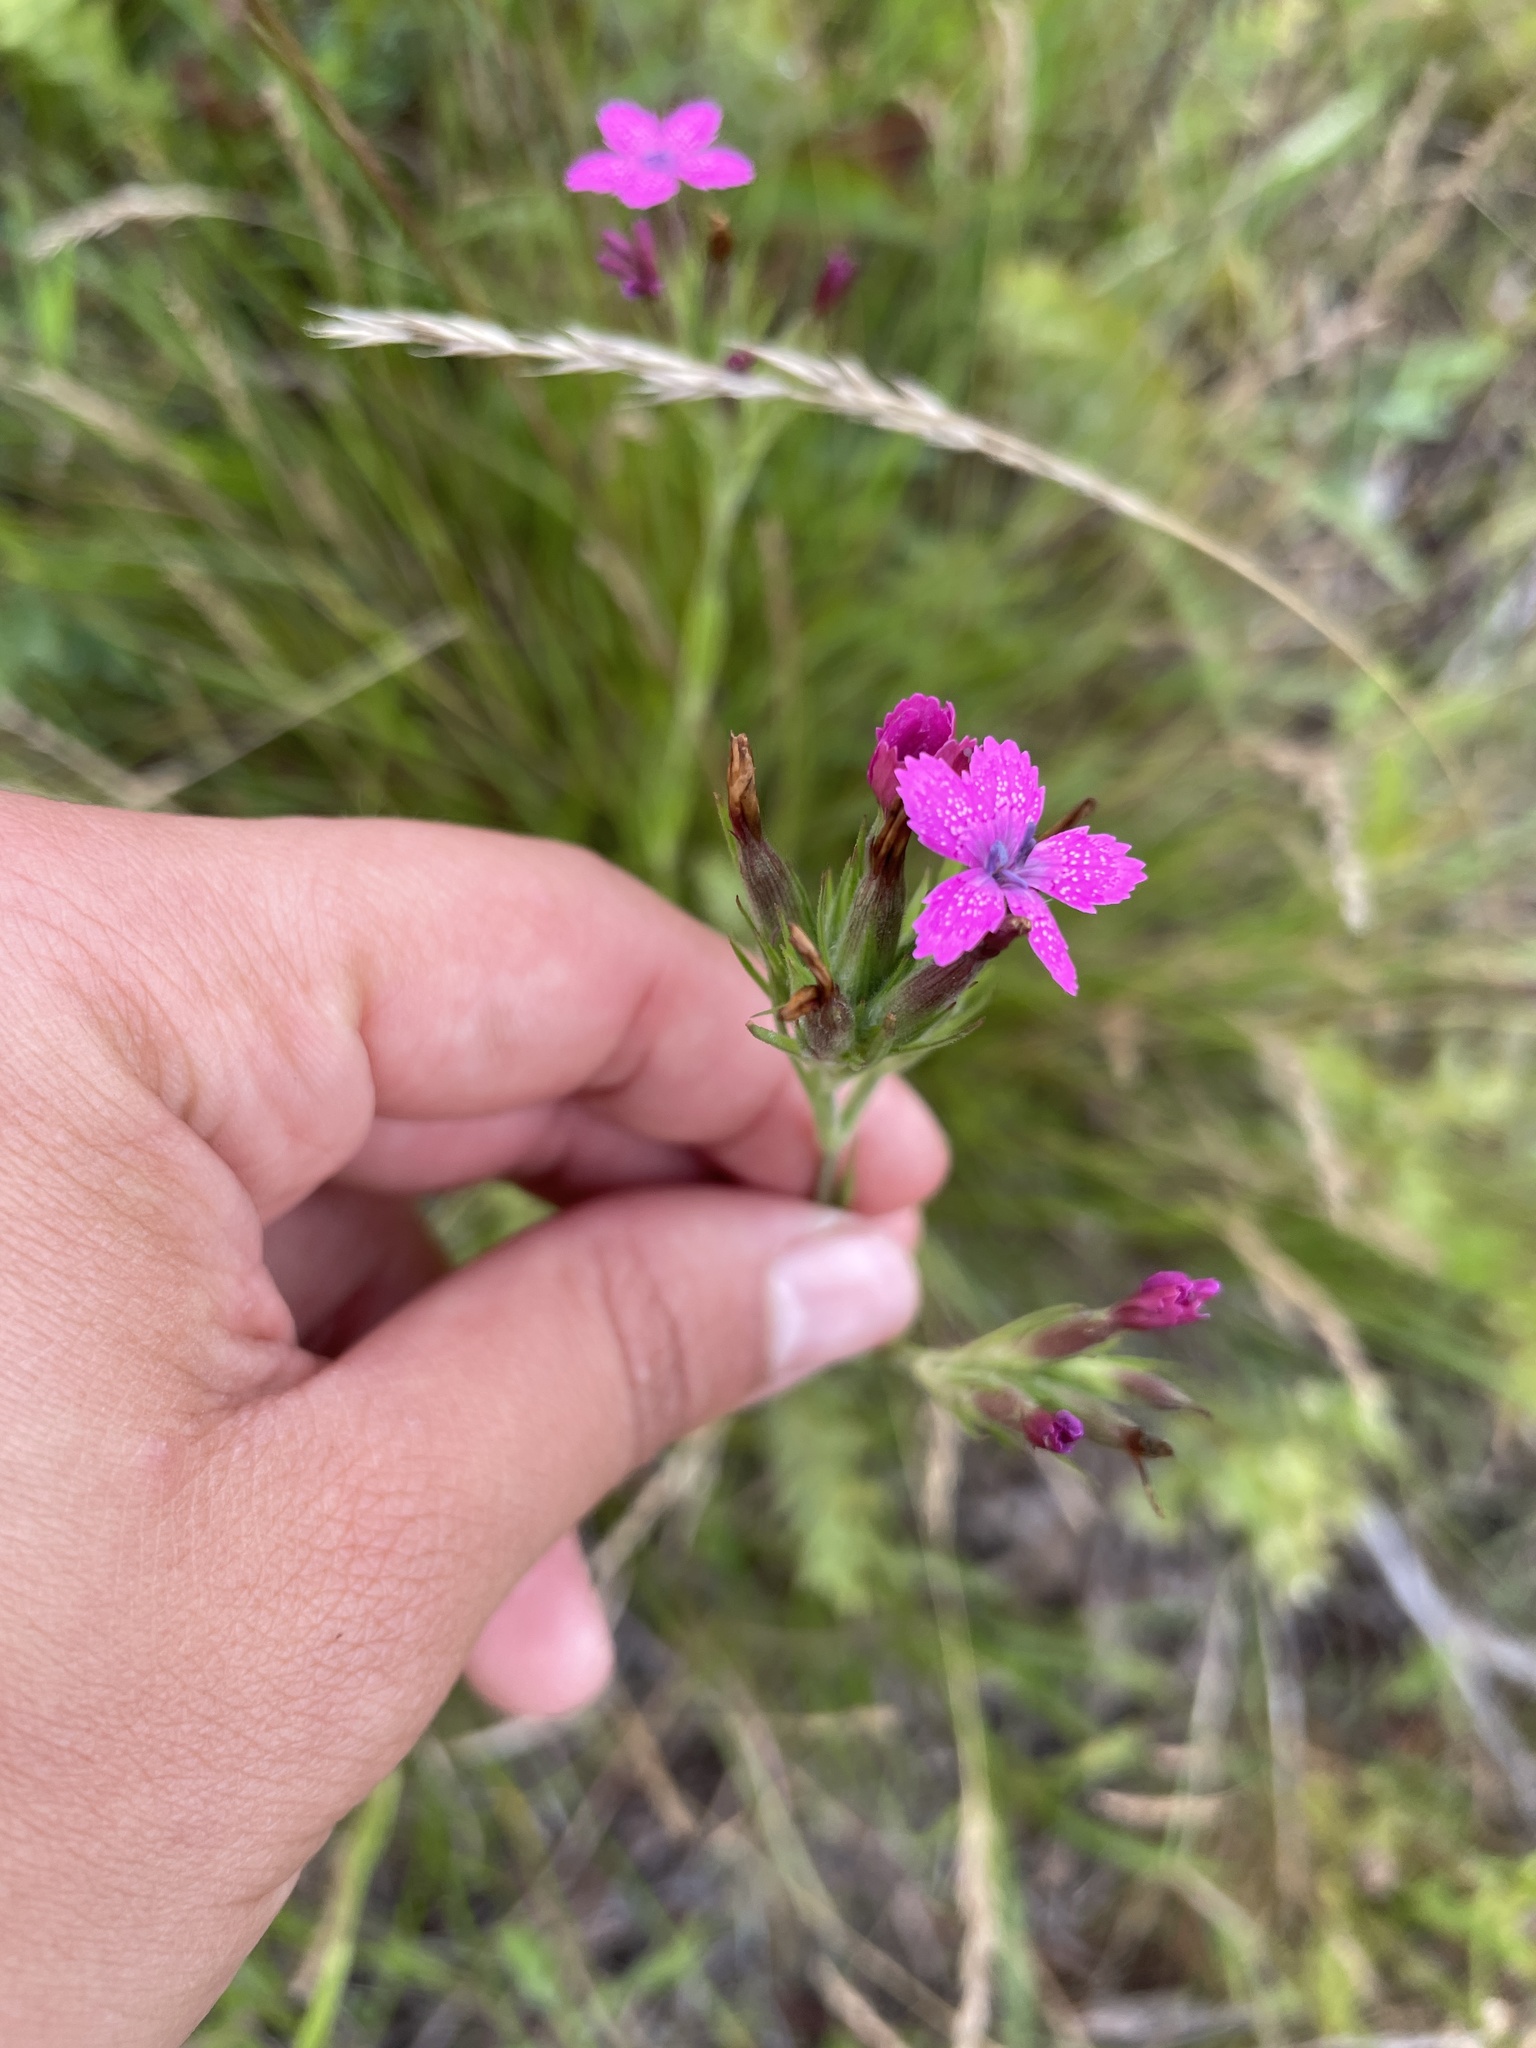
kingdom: Plantae
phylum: Tracheophyta
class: Magnoliopsida
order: Caryophyllales
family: Caryophyllaceae
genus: Dianthus
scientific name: Dianthus armeria
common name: Deptford pink
